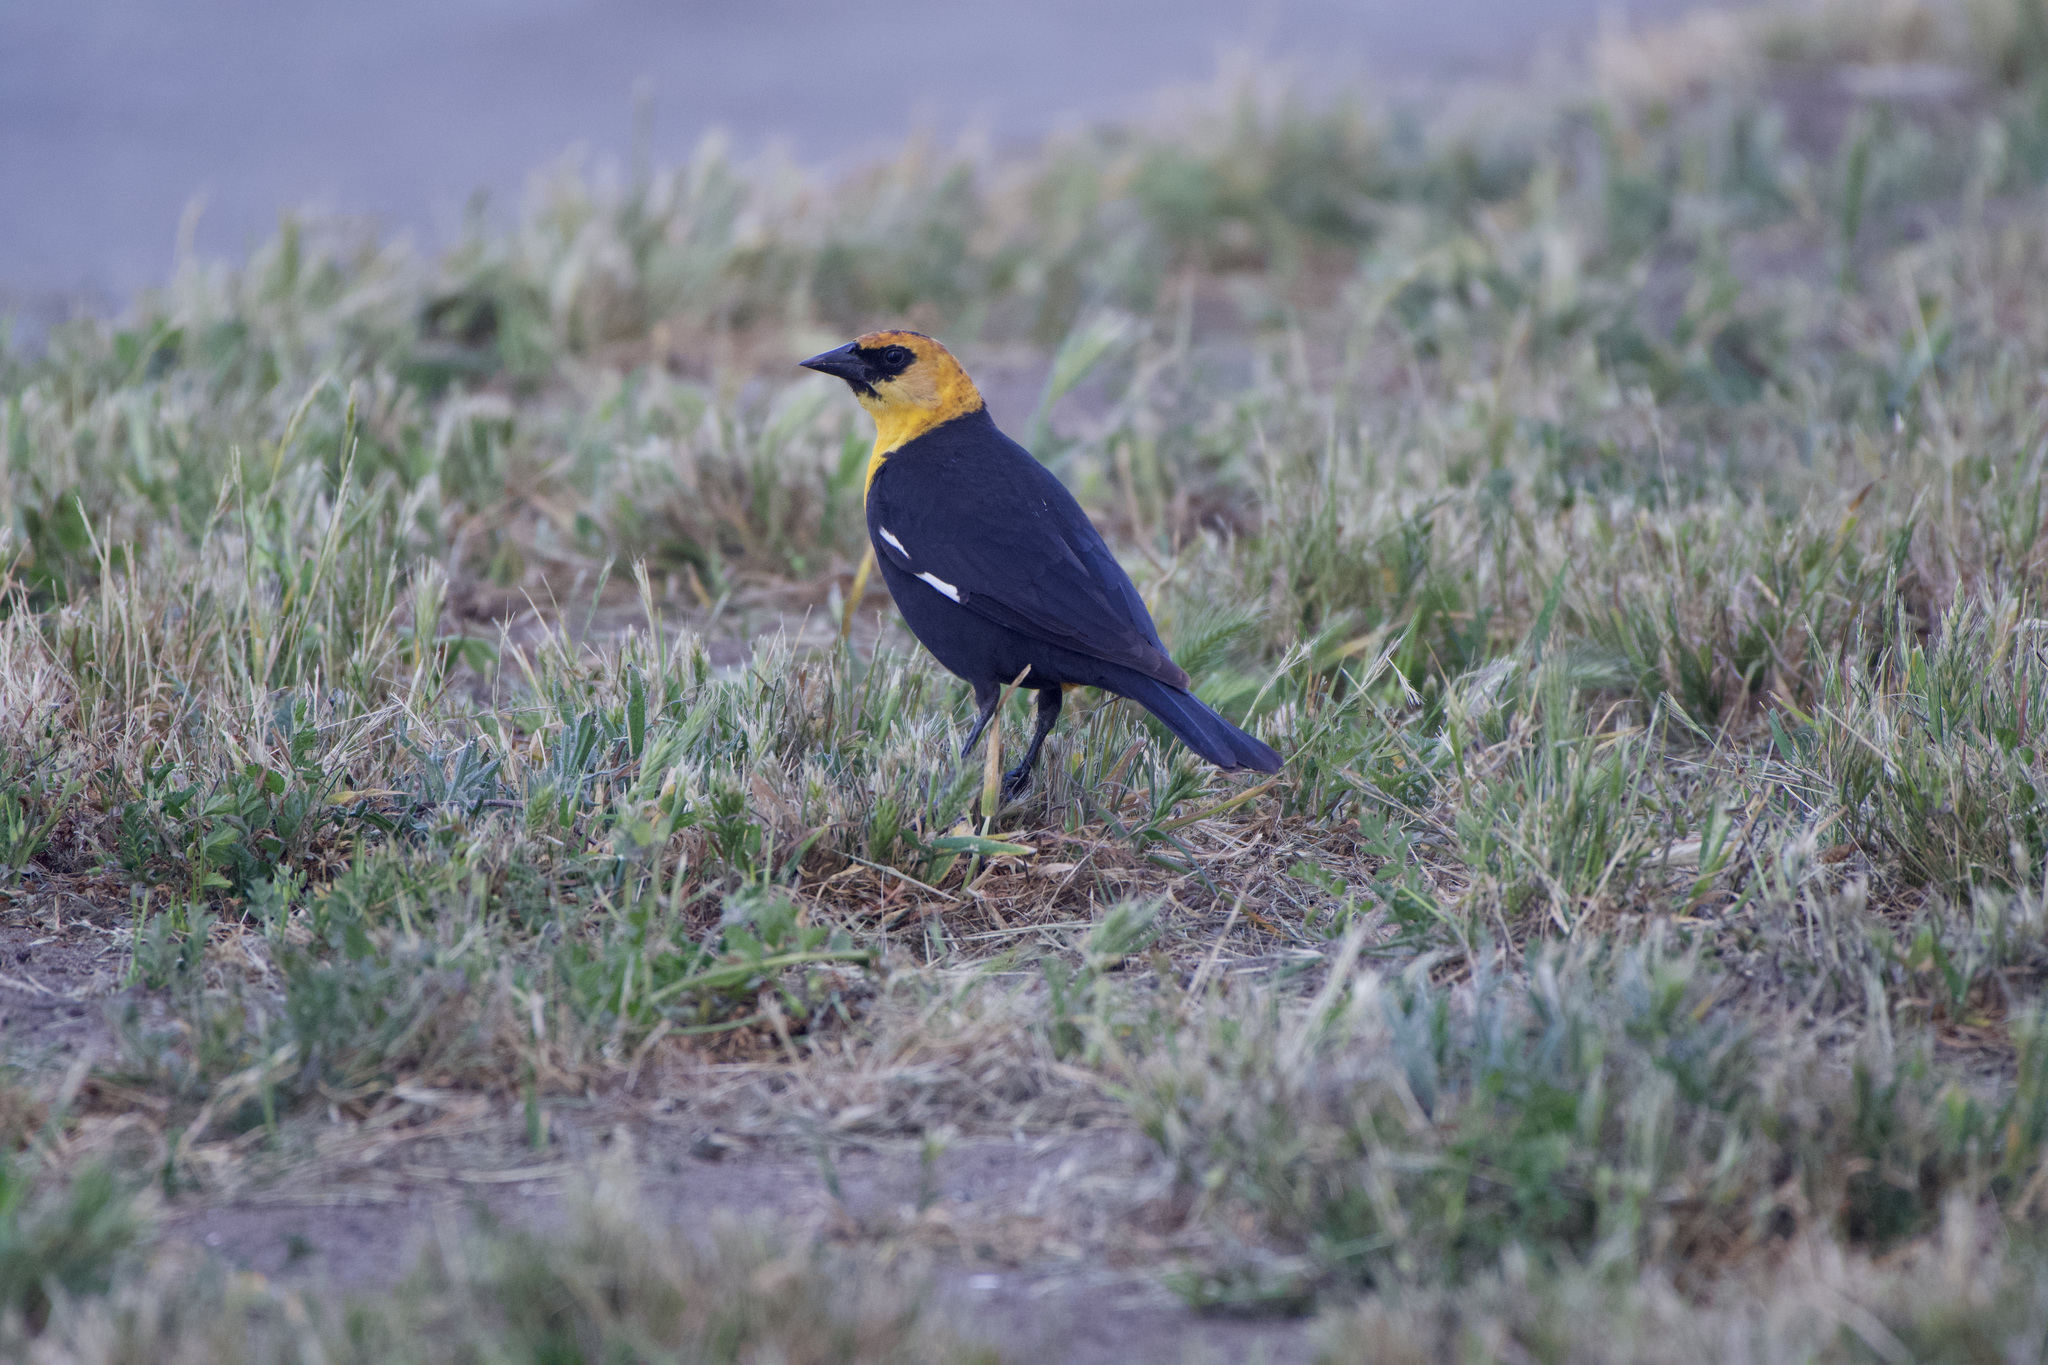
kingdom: Animalia
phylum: Chordata
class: Aves
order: Passeriformes
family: Icteridae
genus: Xanthocephalus
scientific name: Xanthocephalus xanthocephalus
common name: Yellow-headed blackbird
